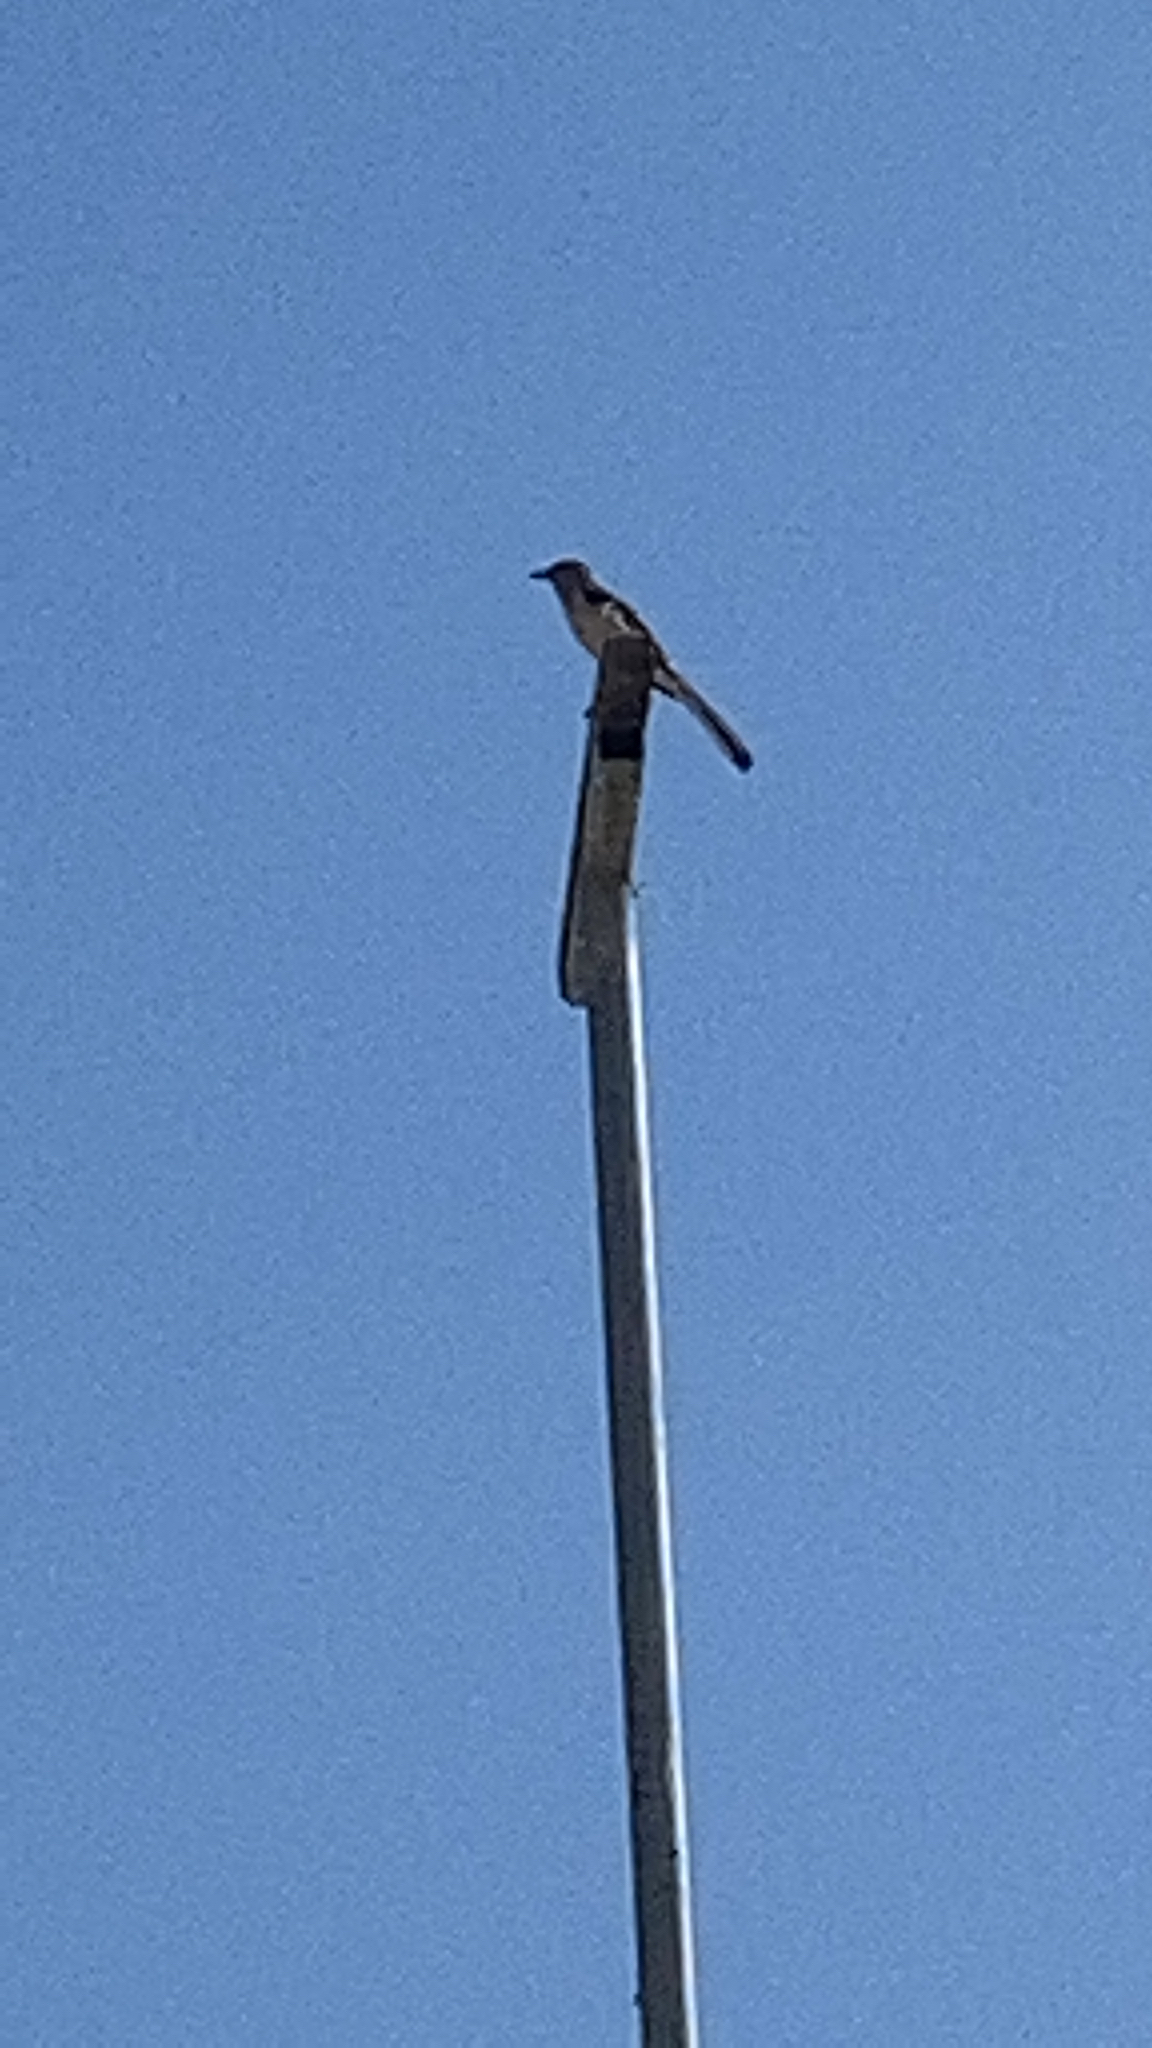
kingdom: Animalia
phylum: Chordata
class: Aves
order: Passeriformes
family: Mimidae
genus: Mimus
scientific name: Mimus polyglottos
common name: Northern mockingbird
